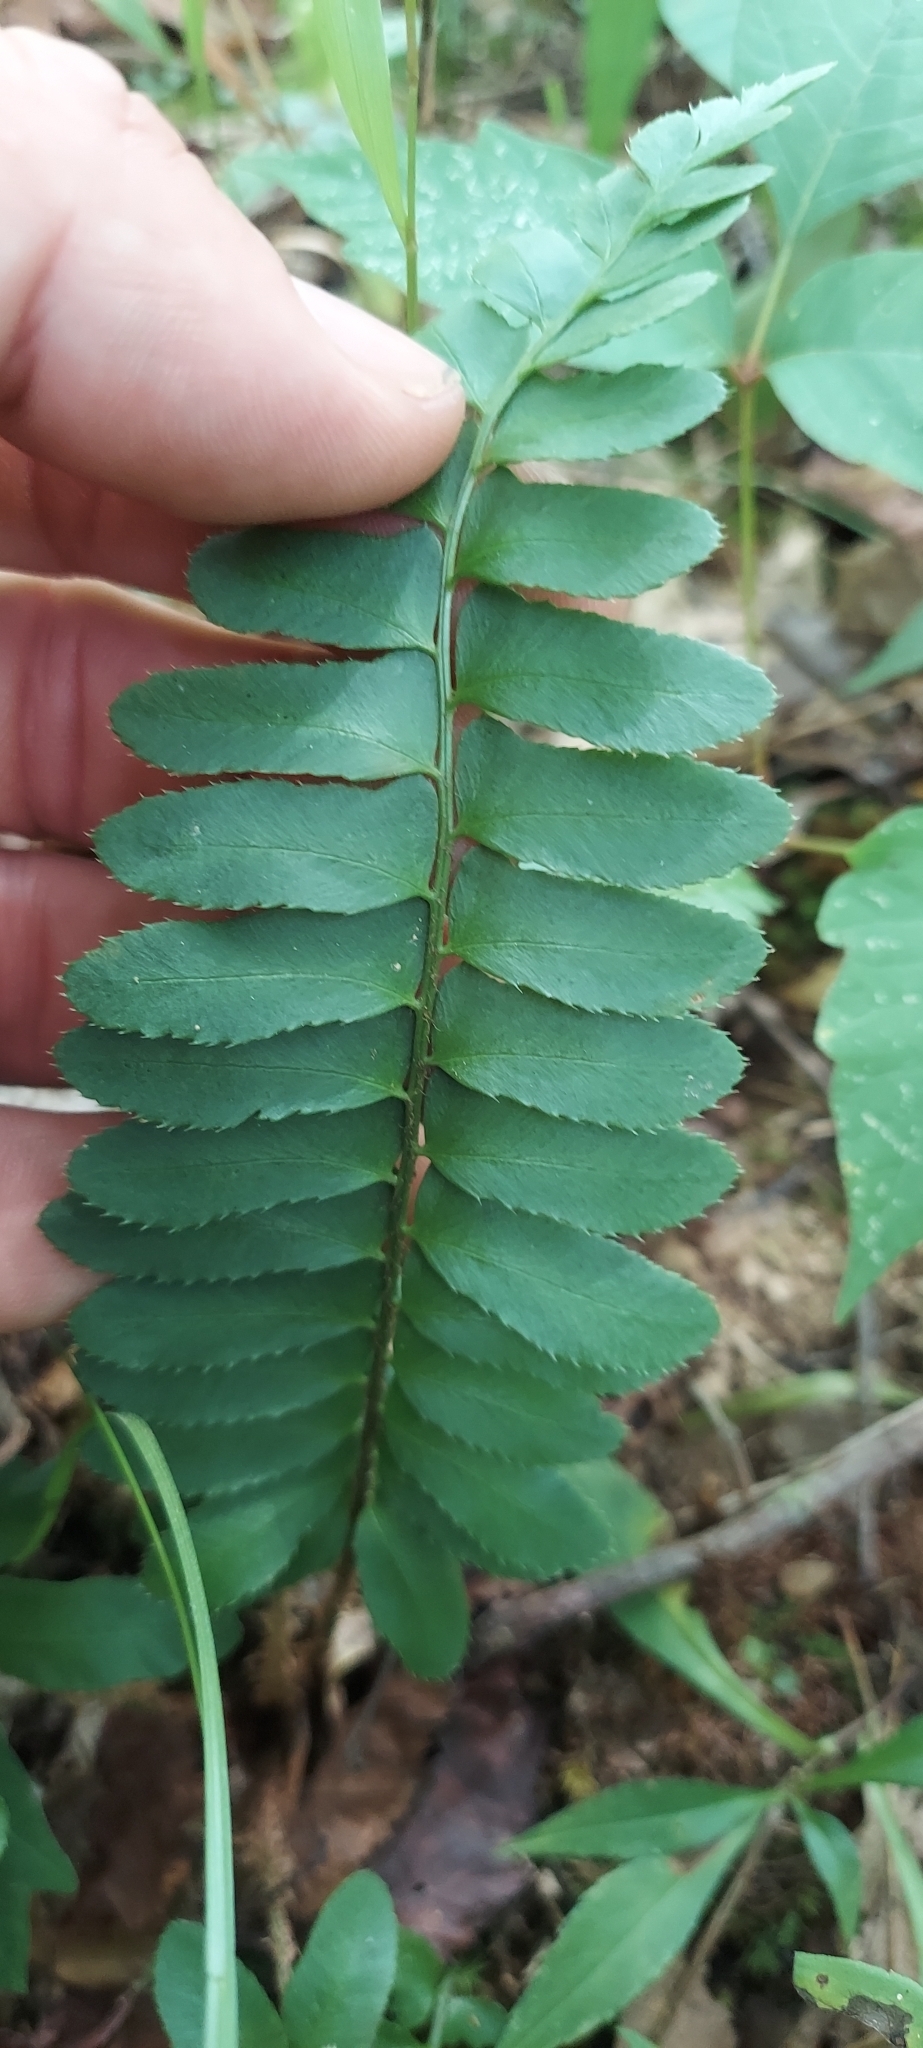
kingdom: Plantae
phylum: Tracheophyta
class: Polypodiopsida
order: Polypodiales
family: Dryopteridaceae
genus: Polystichum
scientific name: Polystichum acrostichoides
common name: Christmas fern
